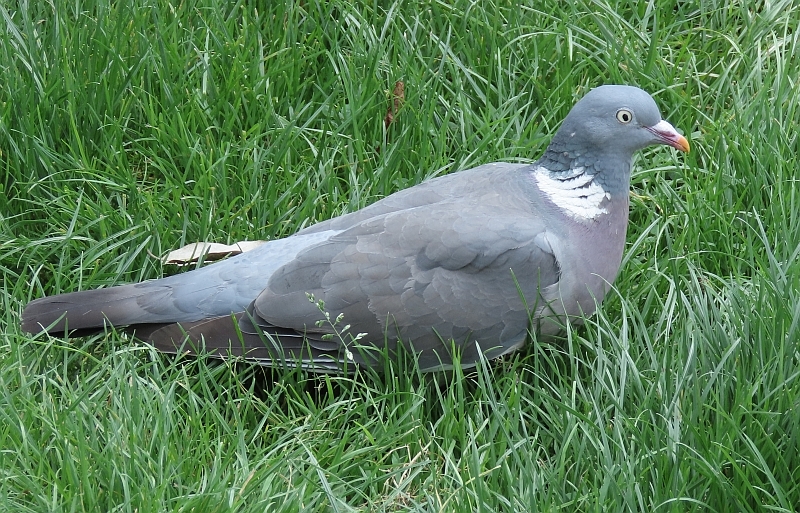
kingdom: Animalia
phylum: Chordata
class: Aves
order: Columbiformes
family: Columbidae
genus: Columba
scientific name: Columba palumbus
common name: Common wood pigeon
